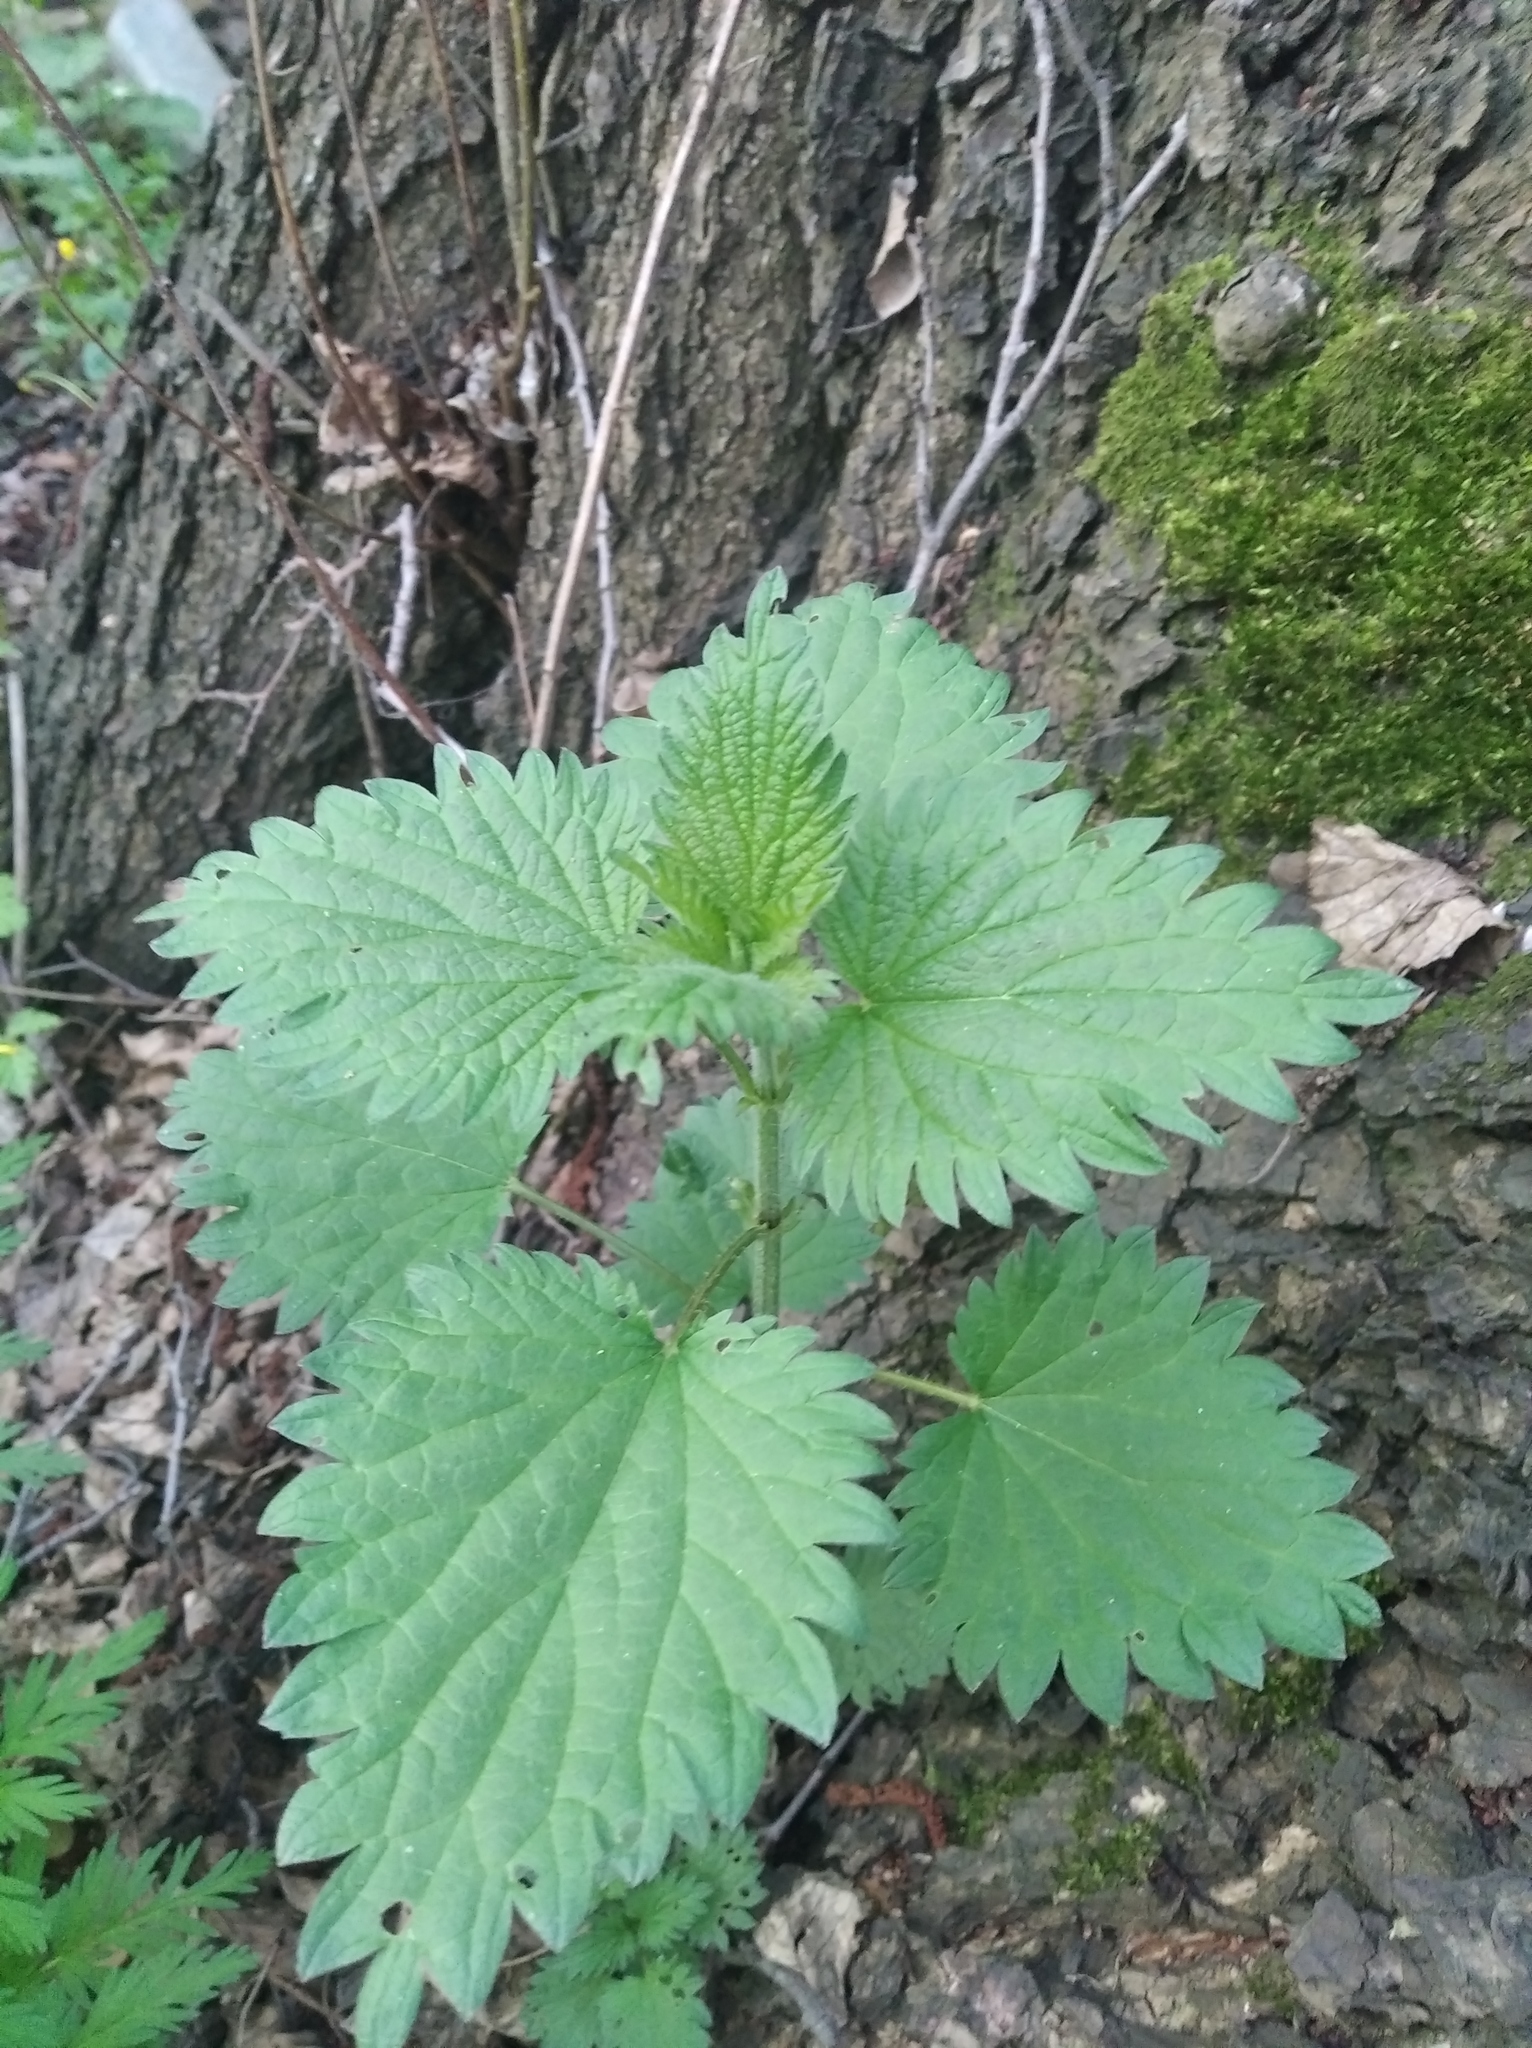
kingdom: Plantae
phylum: Tracheophyta
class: Magnoliopsida
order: Rosales
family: Urticaceae
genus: Urtica
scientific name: Urtica dioica
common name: Common nettle
